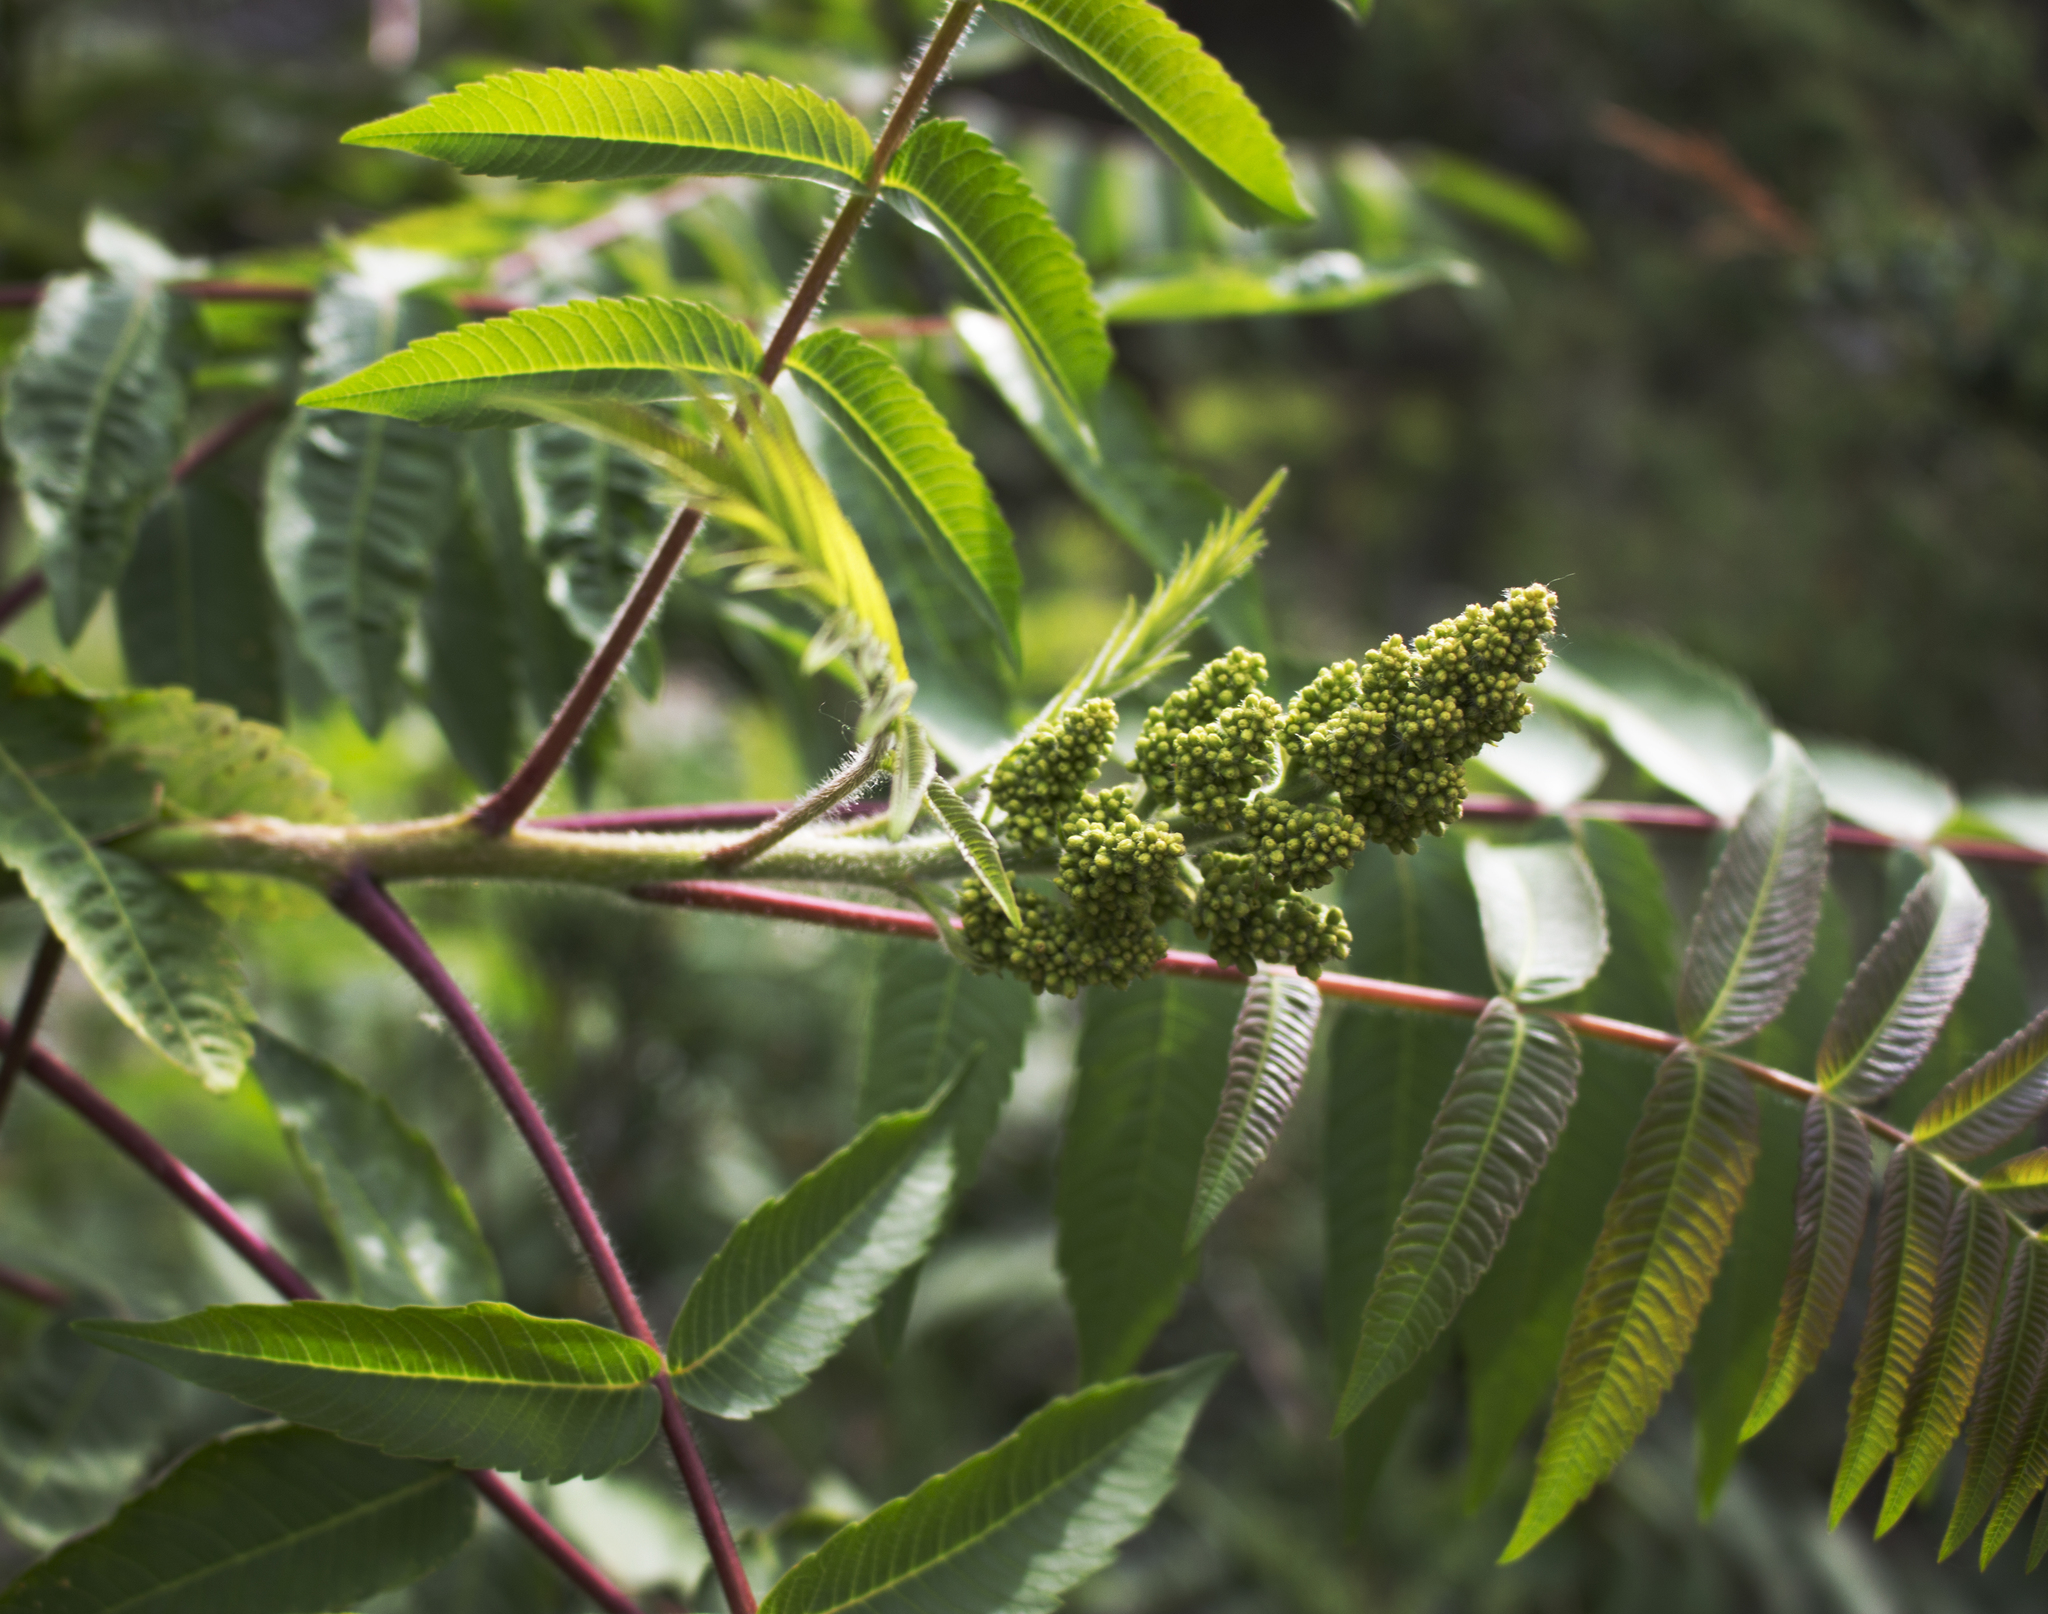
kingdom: Plantae
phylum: Tracheophyta
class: Magnoliopsida
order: Sapindales
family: Anacardiaceae
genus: Rhus
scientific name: Rhus typhina
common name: Staghorn sumac
